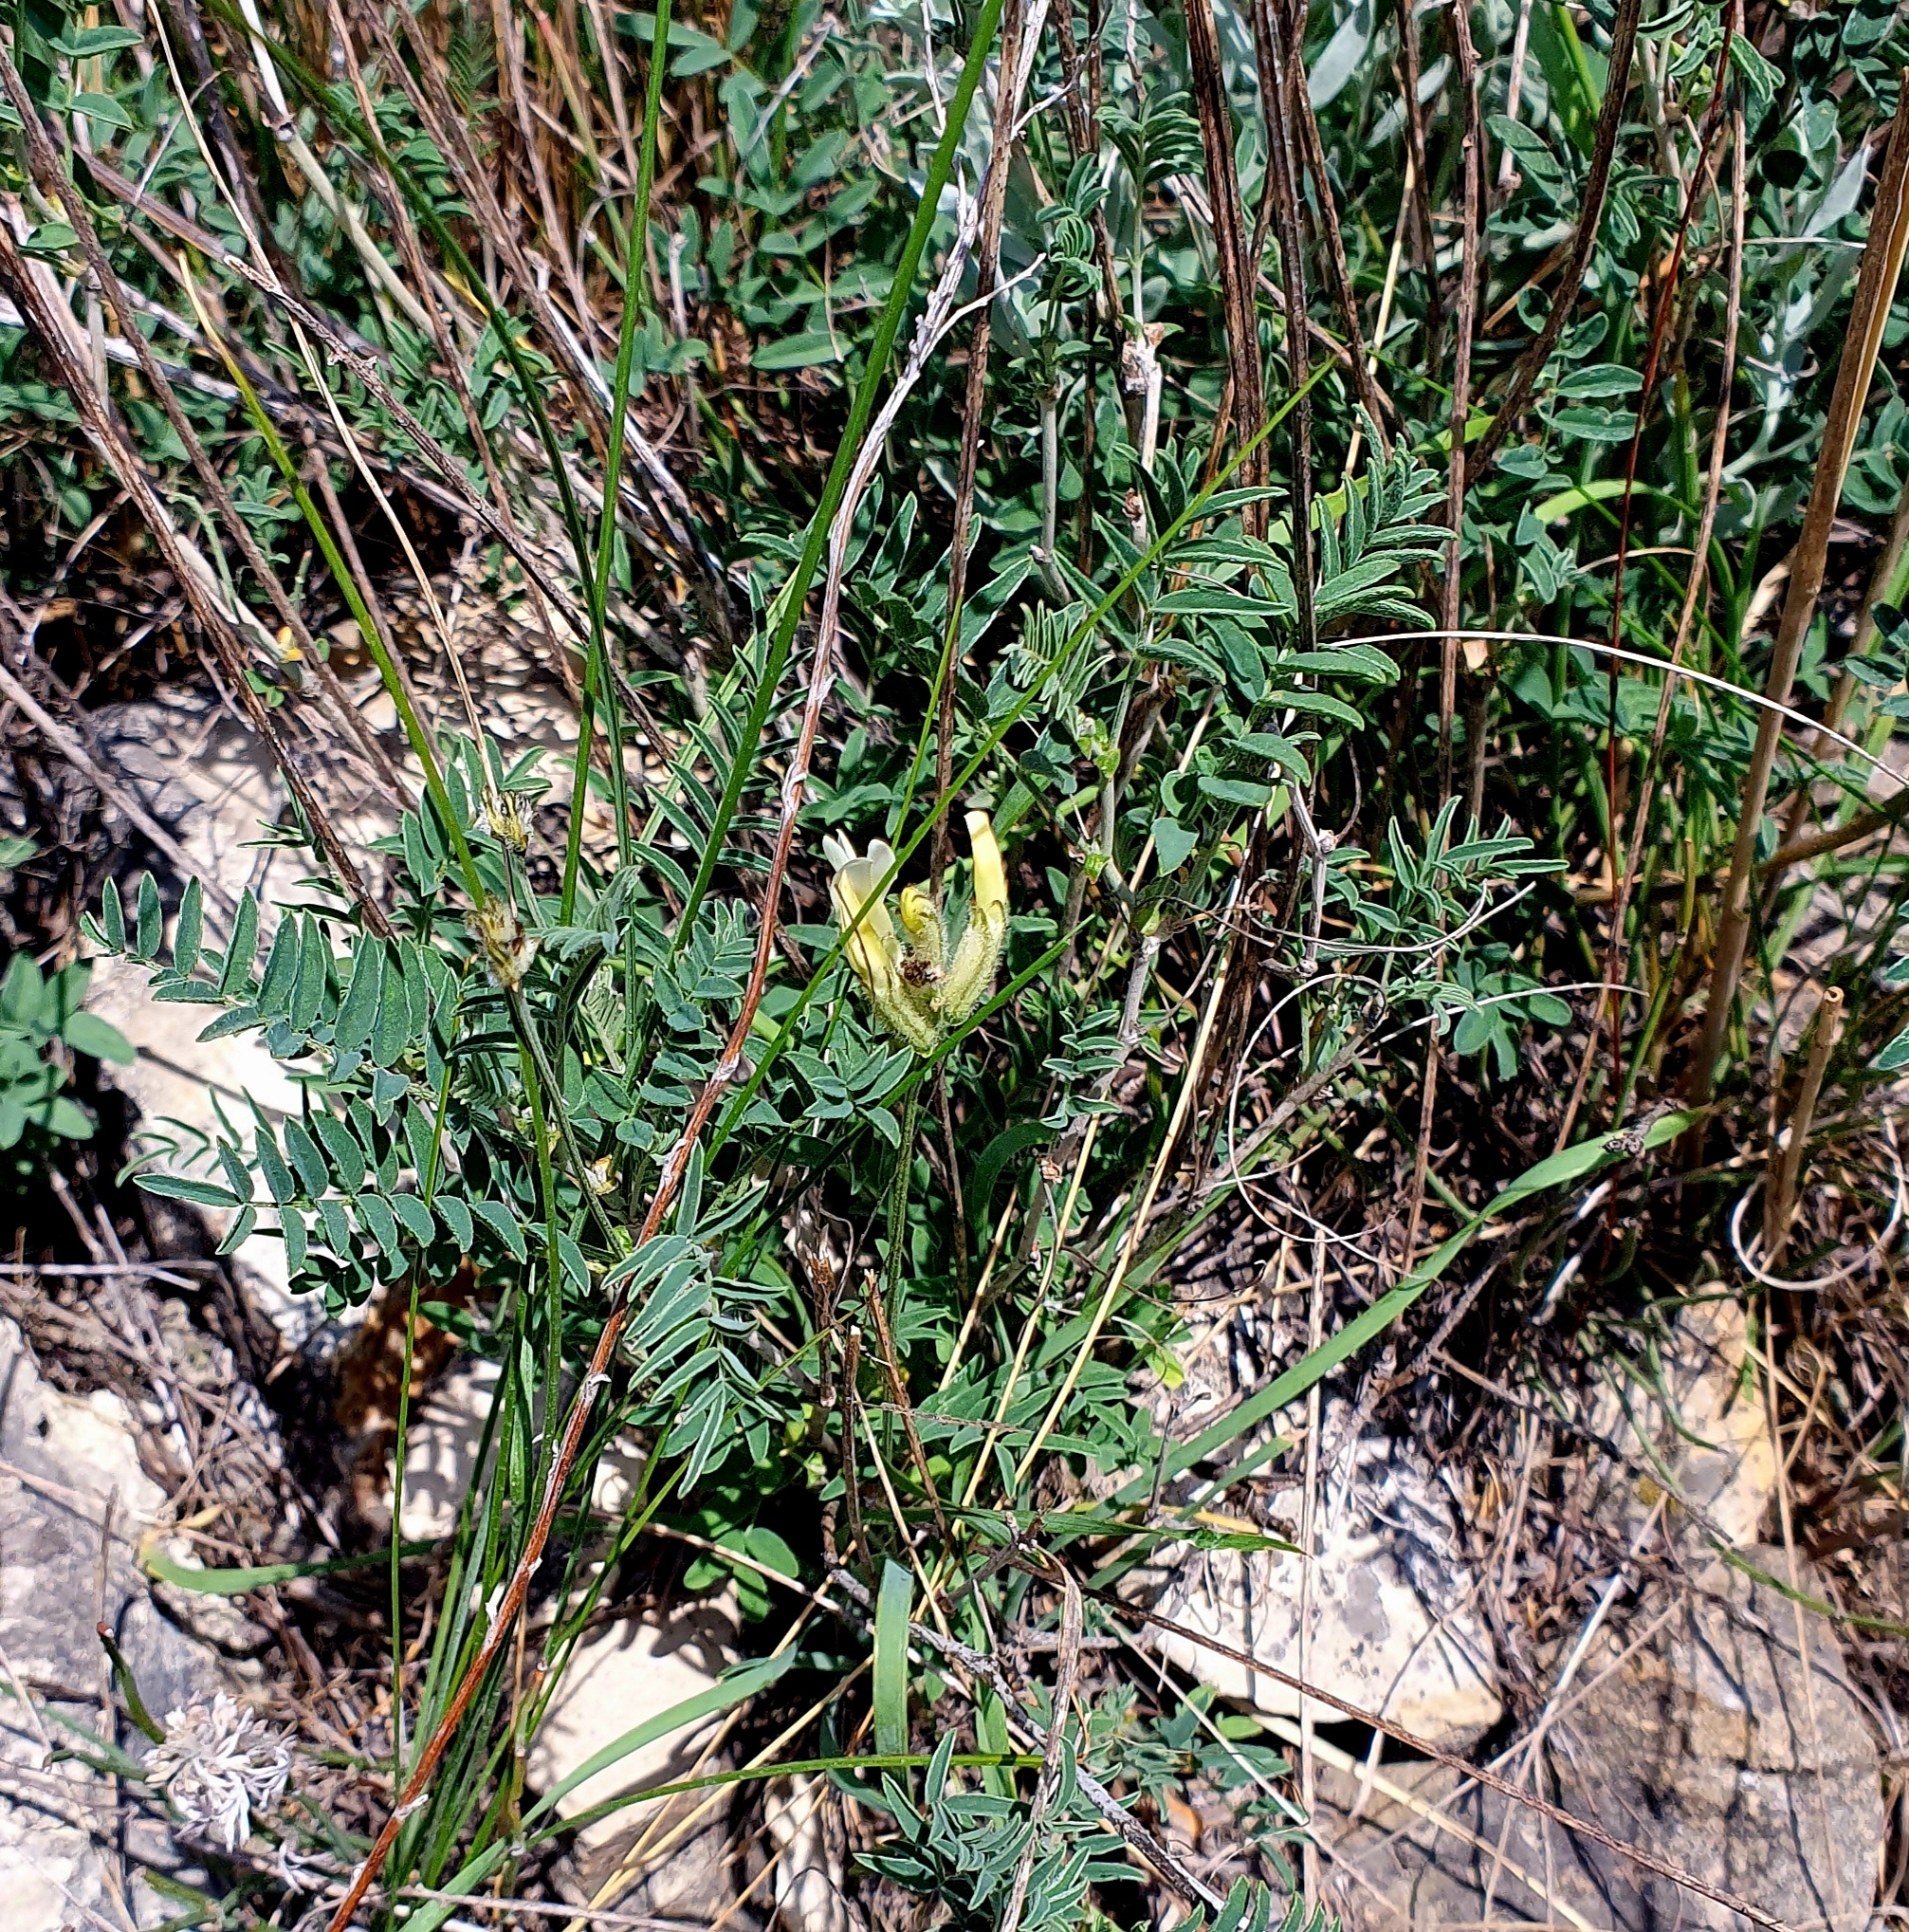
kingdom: Plantae
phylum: Tracheophyta
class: Magnoliopsida
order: Fabales
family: Fabaceae
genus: Astragalus
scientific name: Astragalus zingeri
